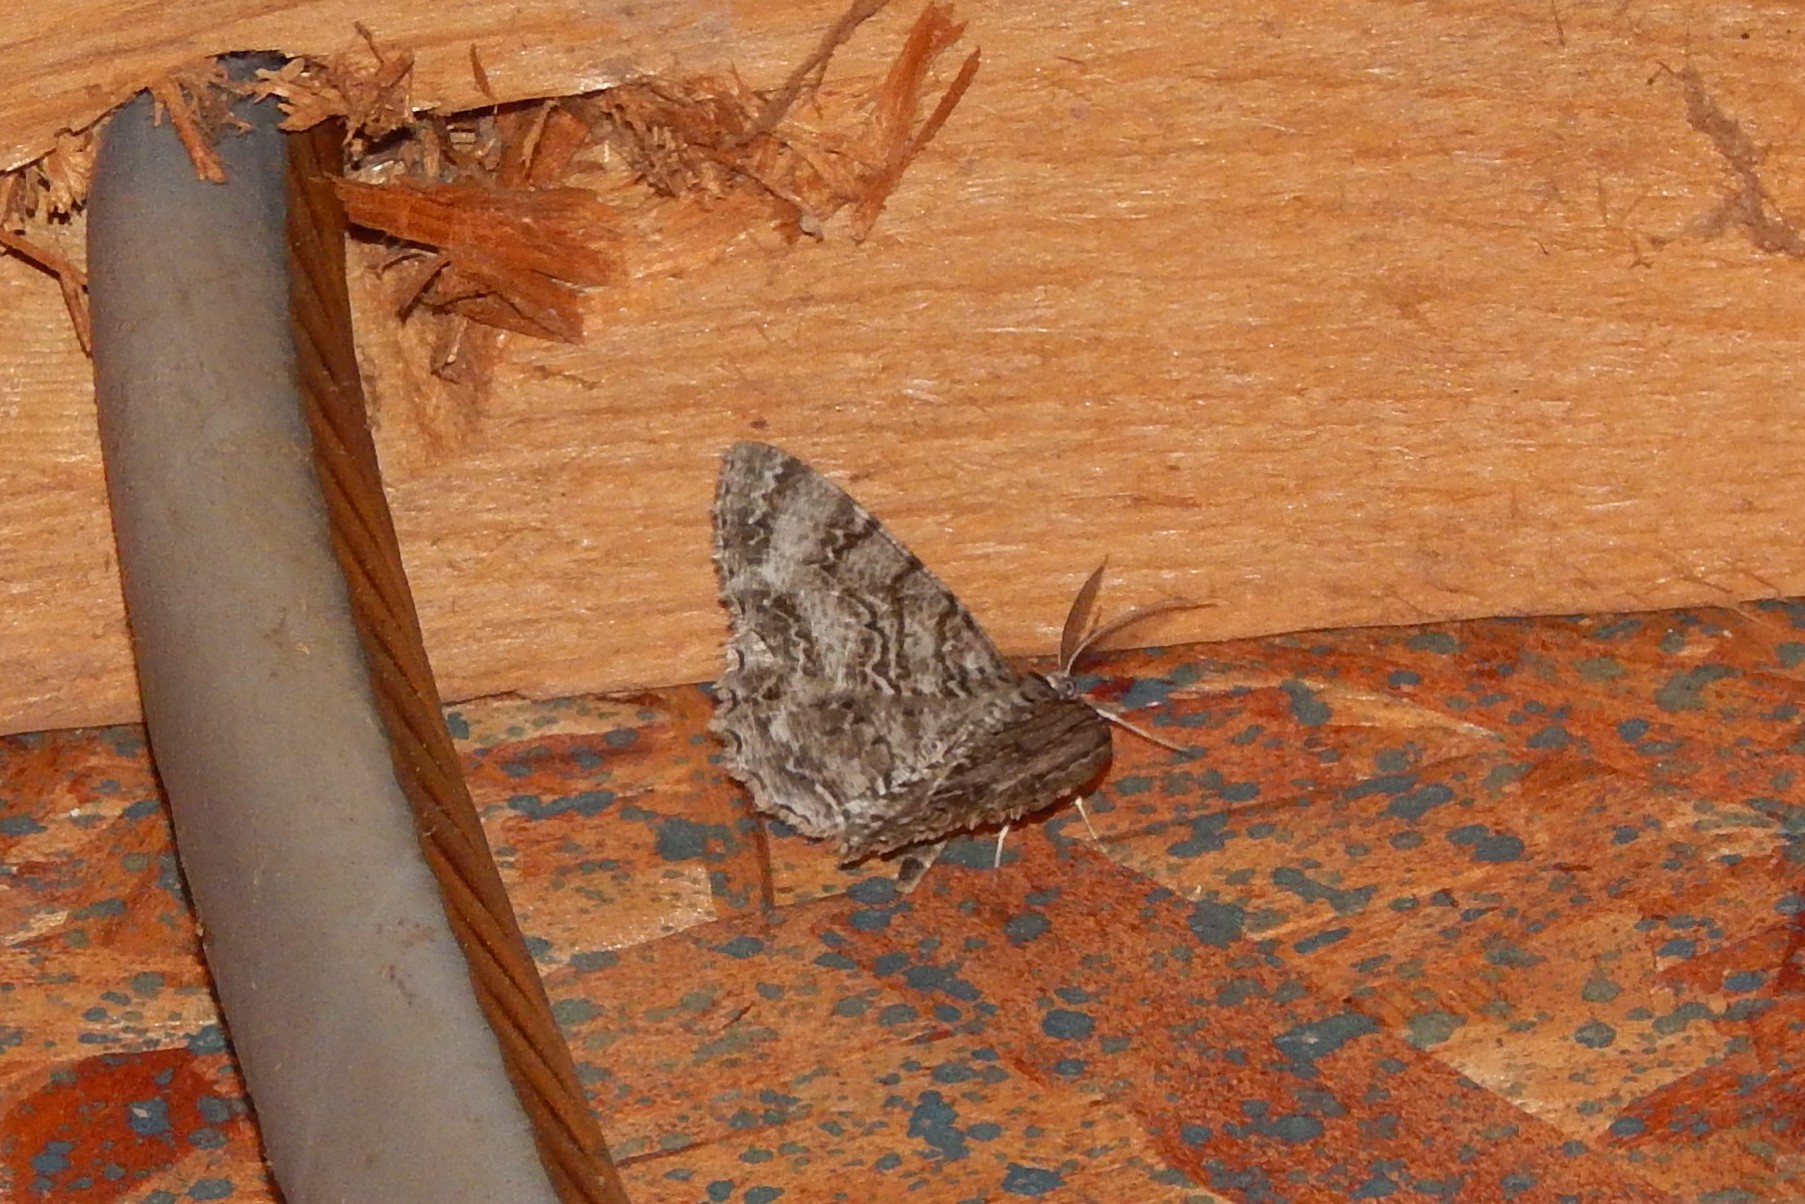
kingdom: Animalia
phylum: Arthropoda
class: Insecta
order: Lepidoptera
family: Geometridae
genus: Epimecis
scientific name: Epimecis hortaria
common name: Tulip-tree beauty
